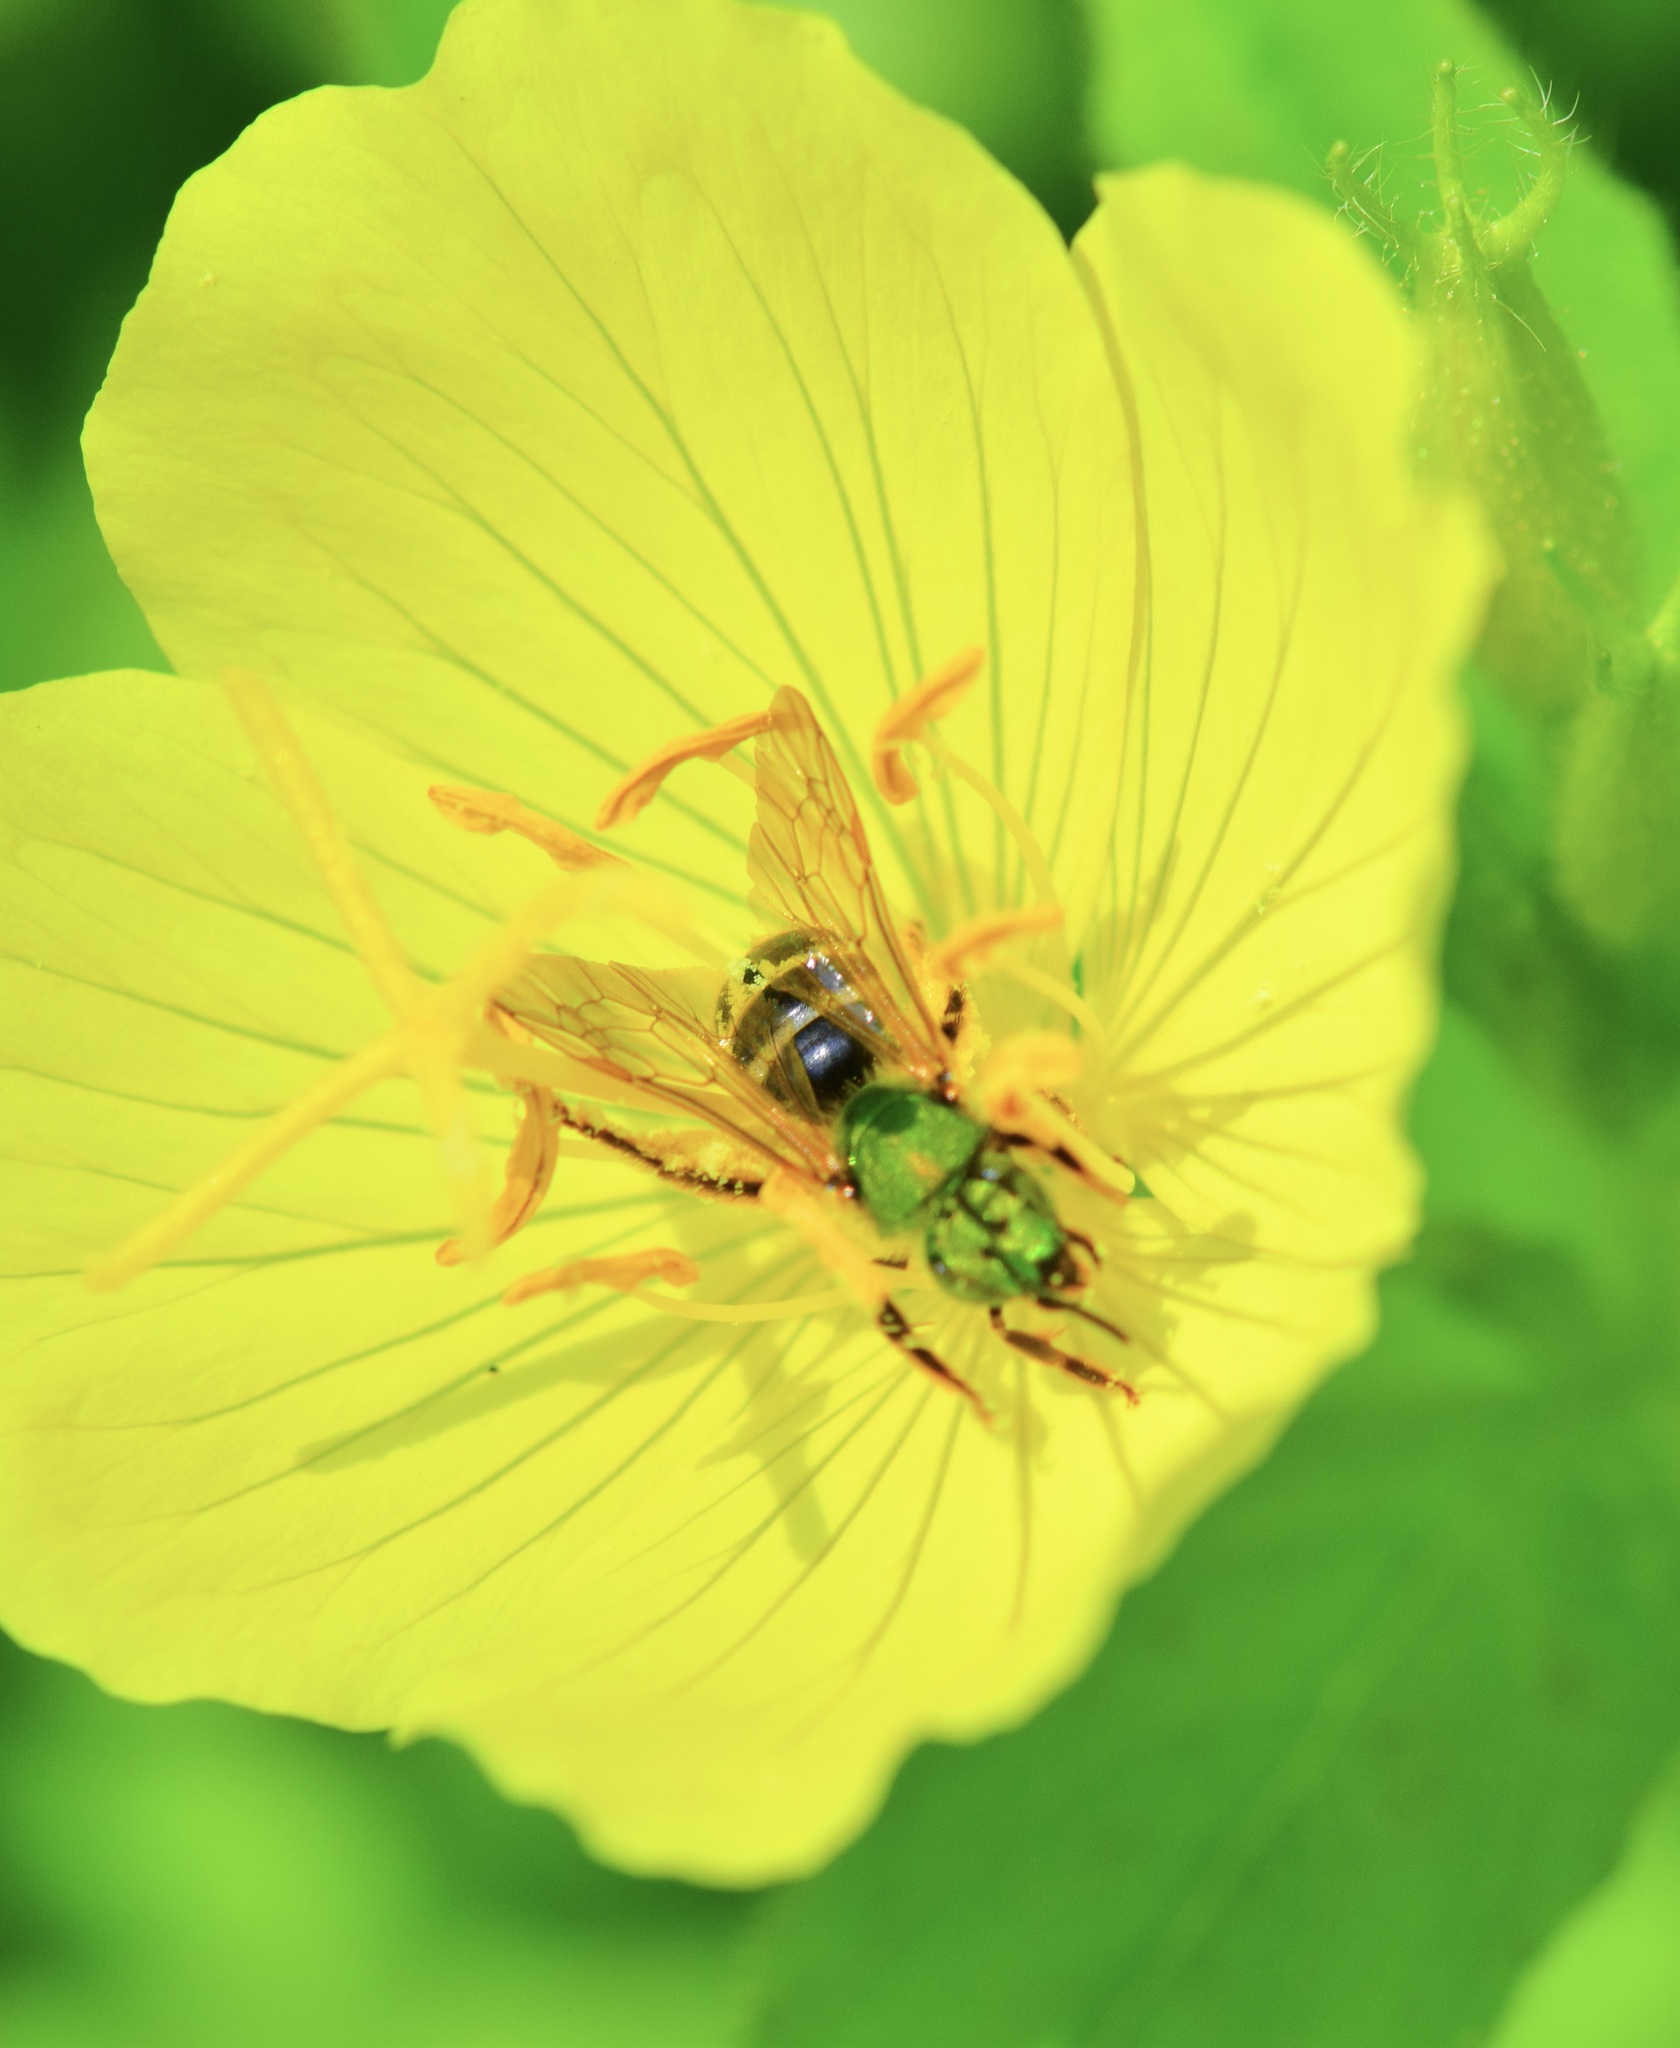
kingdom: Animalia
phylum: Arthropoda
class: Insecta
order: Hymenoptera
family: Halictidae
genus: Agapostemon
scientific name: Agapostemon virescens
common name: Bicolored striped sweat bee
